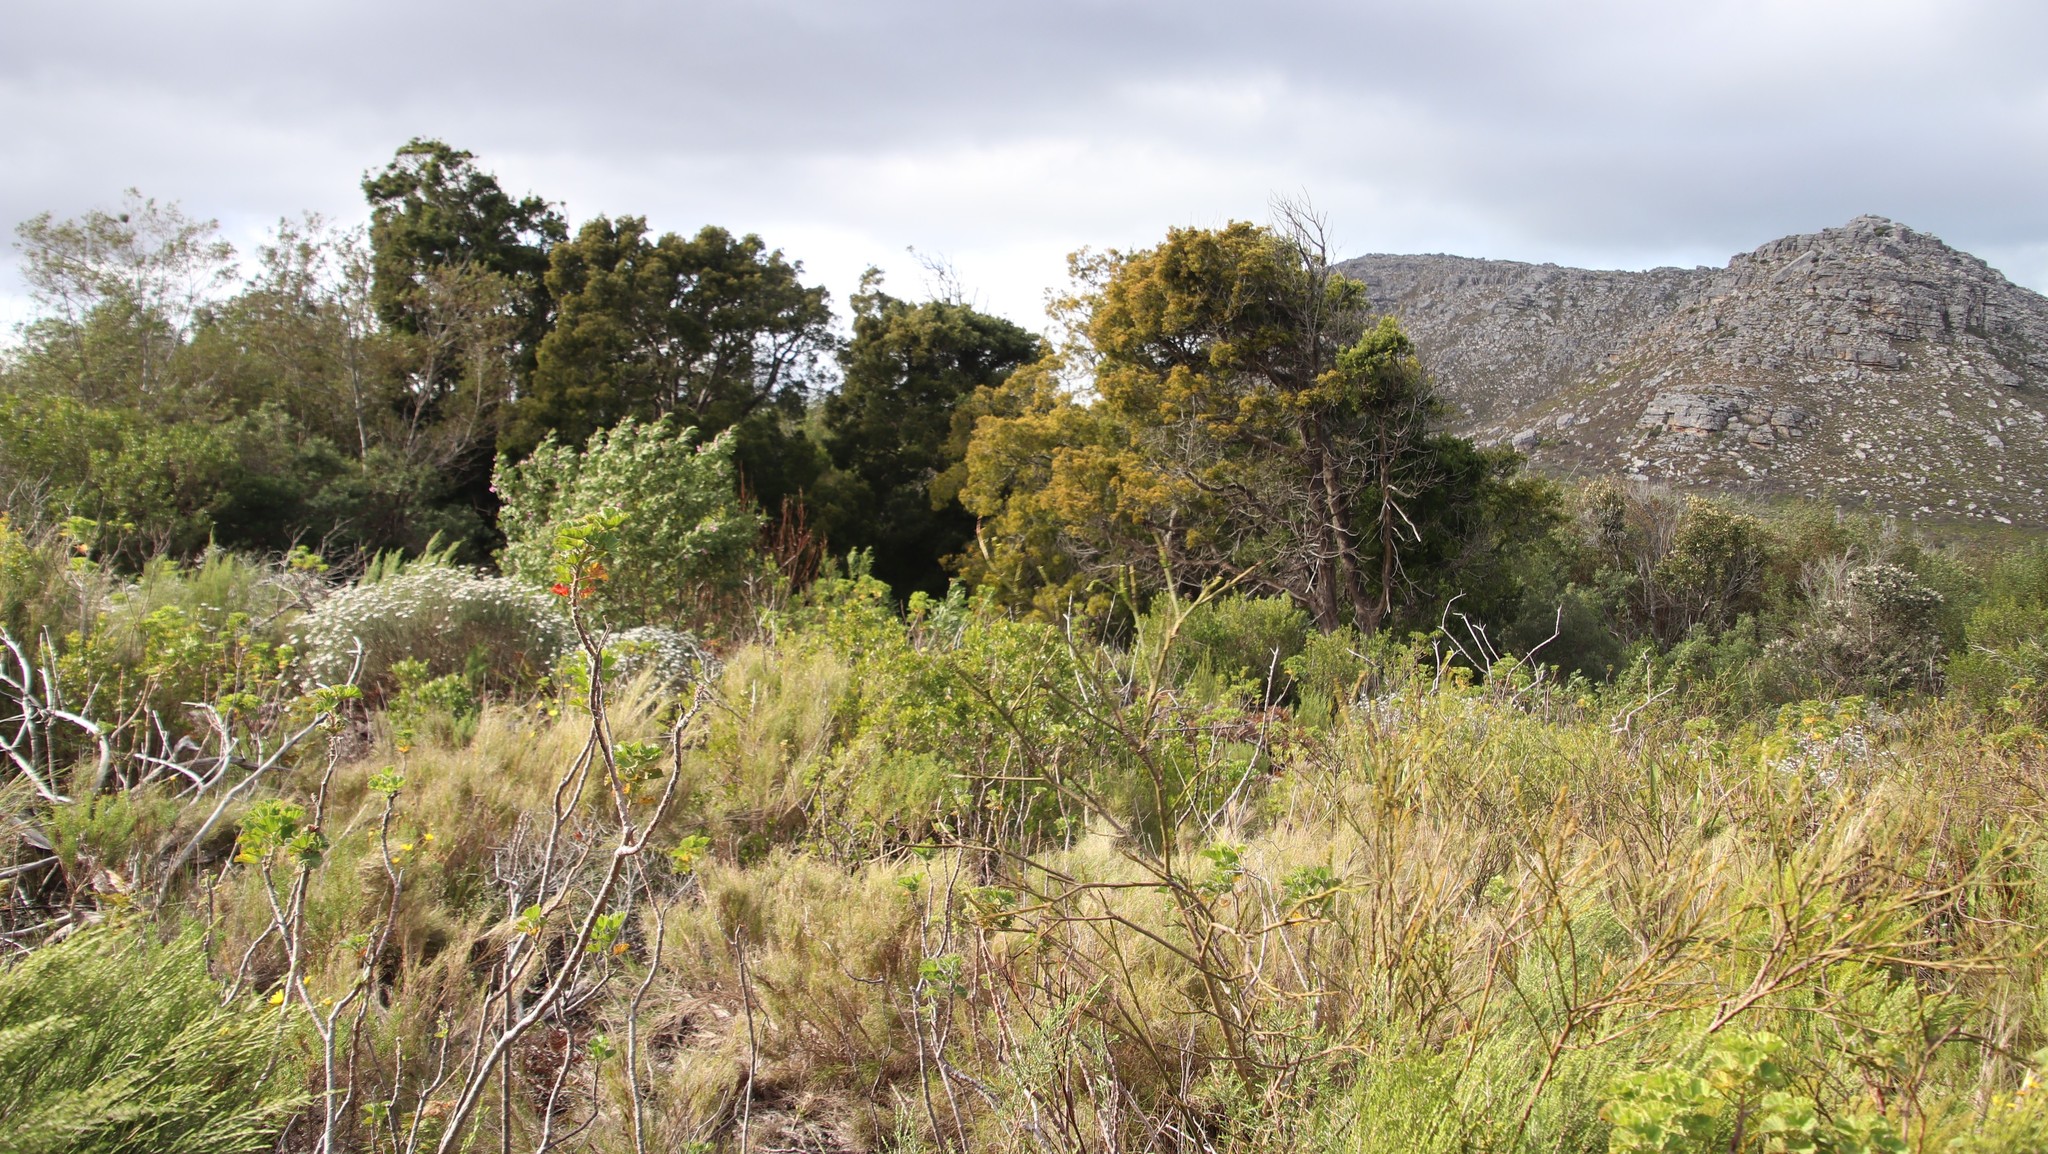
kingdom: Plantae
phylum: Tracheophyta
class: Pinopsida
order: Pinales
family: Podocarpaceae
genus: Afrocarpus
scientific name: Afrocarpus falcatus
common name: Bastard yellowwood
